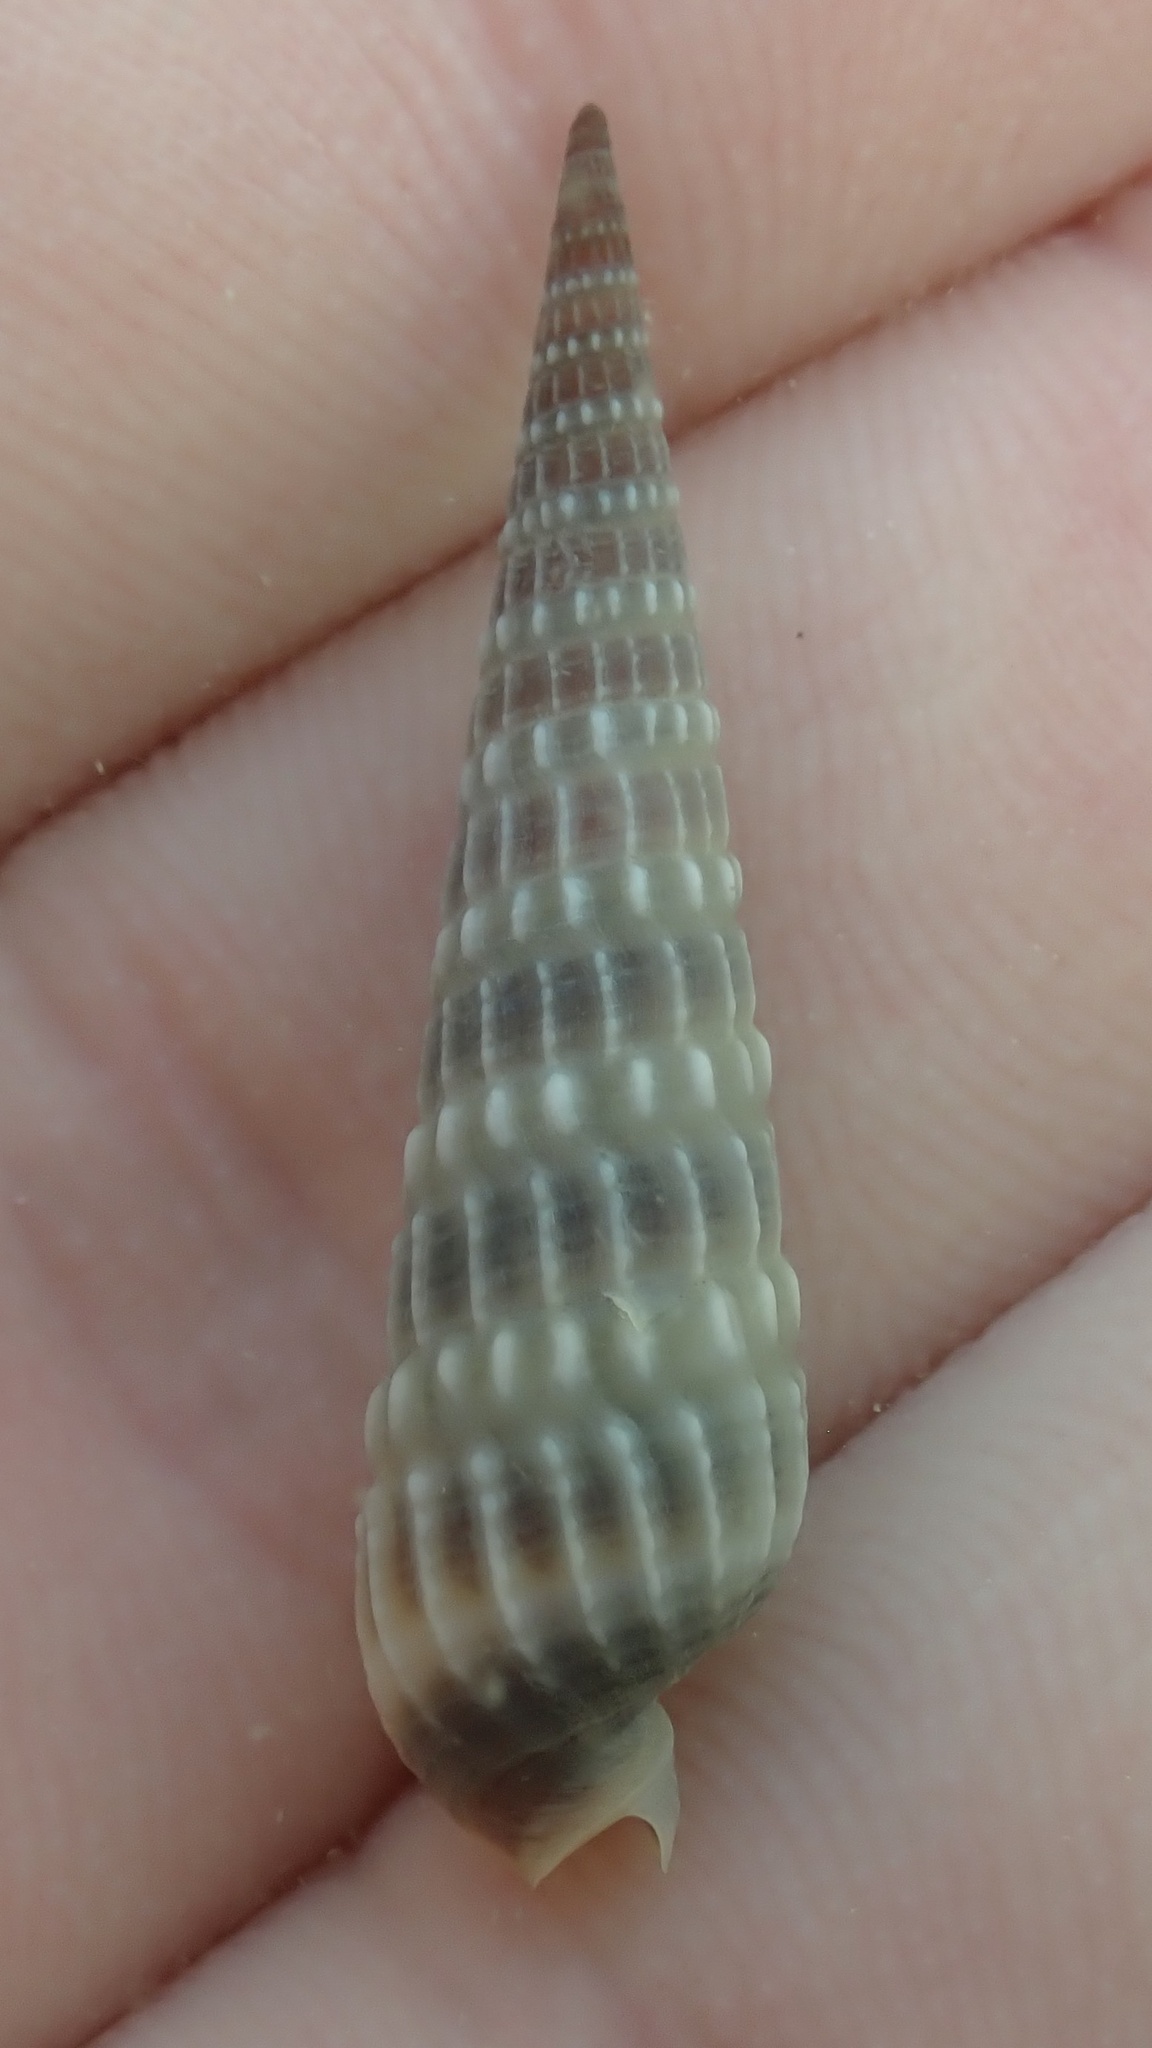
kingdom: Animalia
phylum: Mollusca
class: Gastropoda
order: Neogastropoda
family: Terebridae
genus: Neoterebra
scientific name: Neoterebra dislocata
